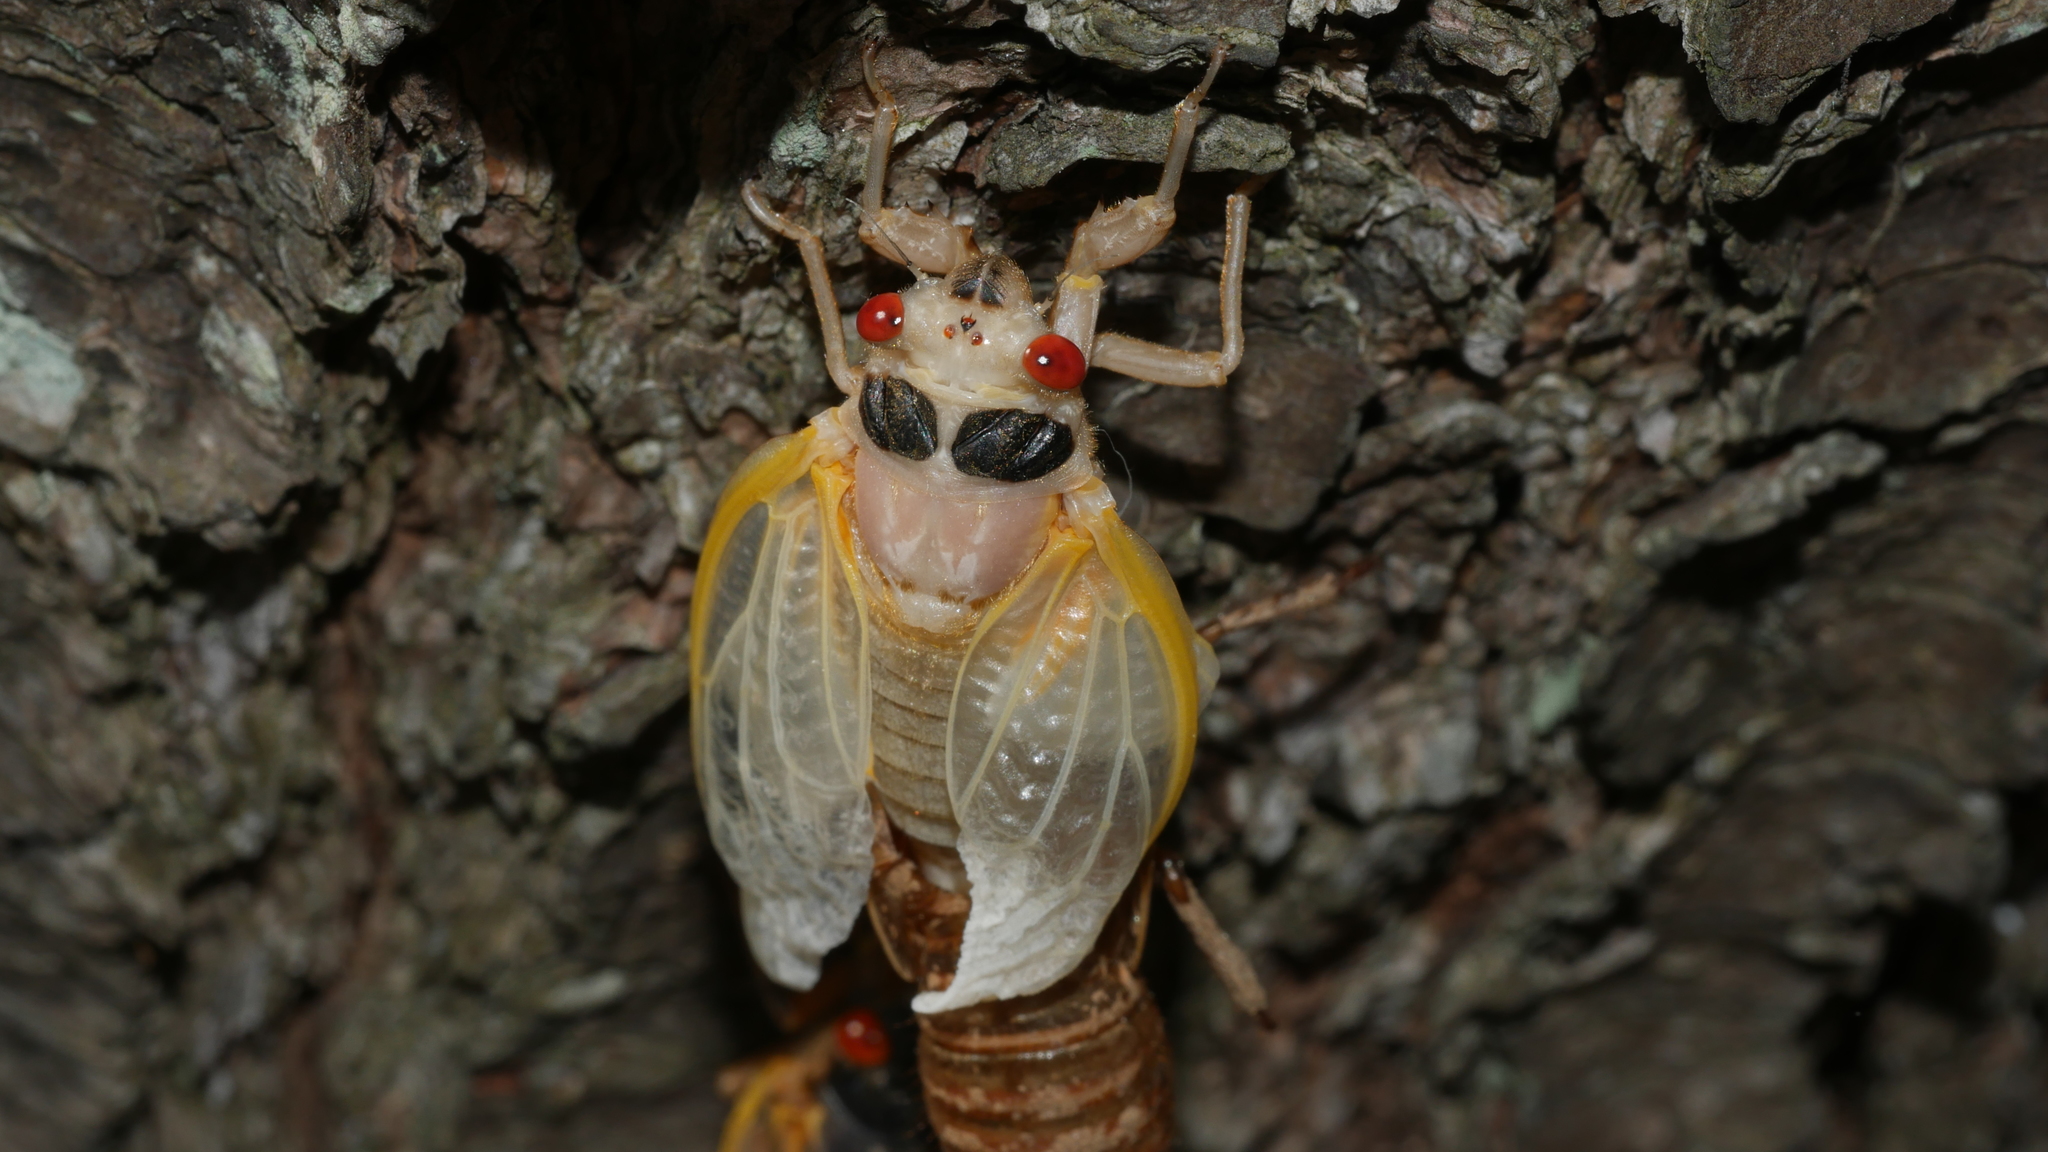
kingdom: Animalia
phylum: Arthropoda
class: Insecta
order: Hemiptera
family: Cicadidae
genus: Magicicada
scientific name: Magicicada
